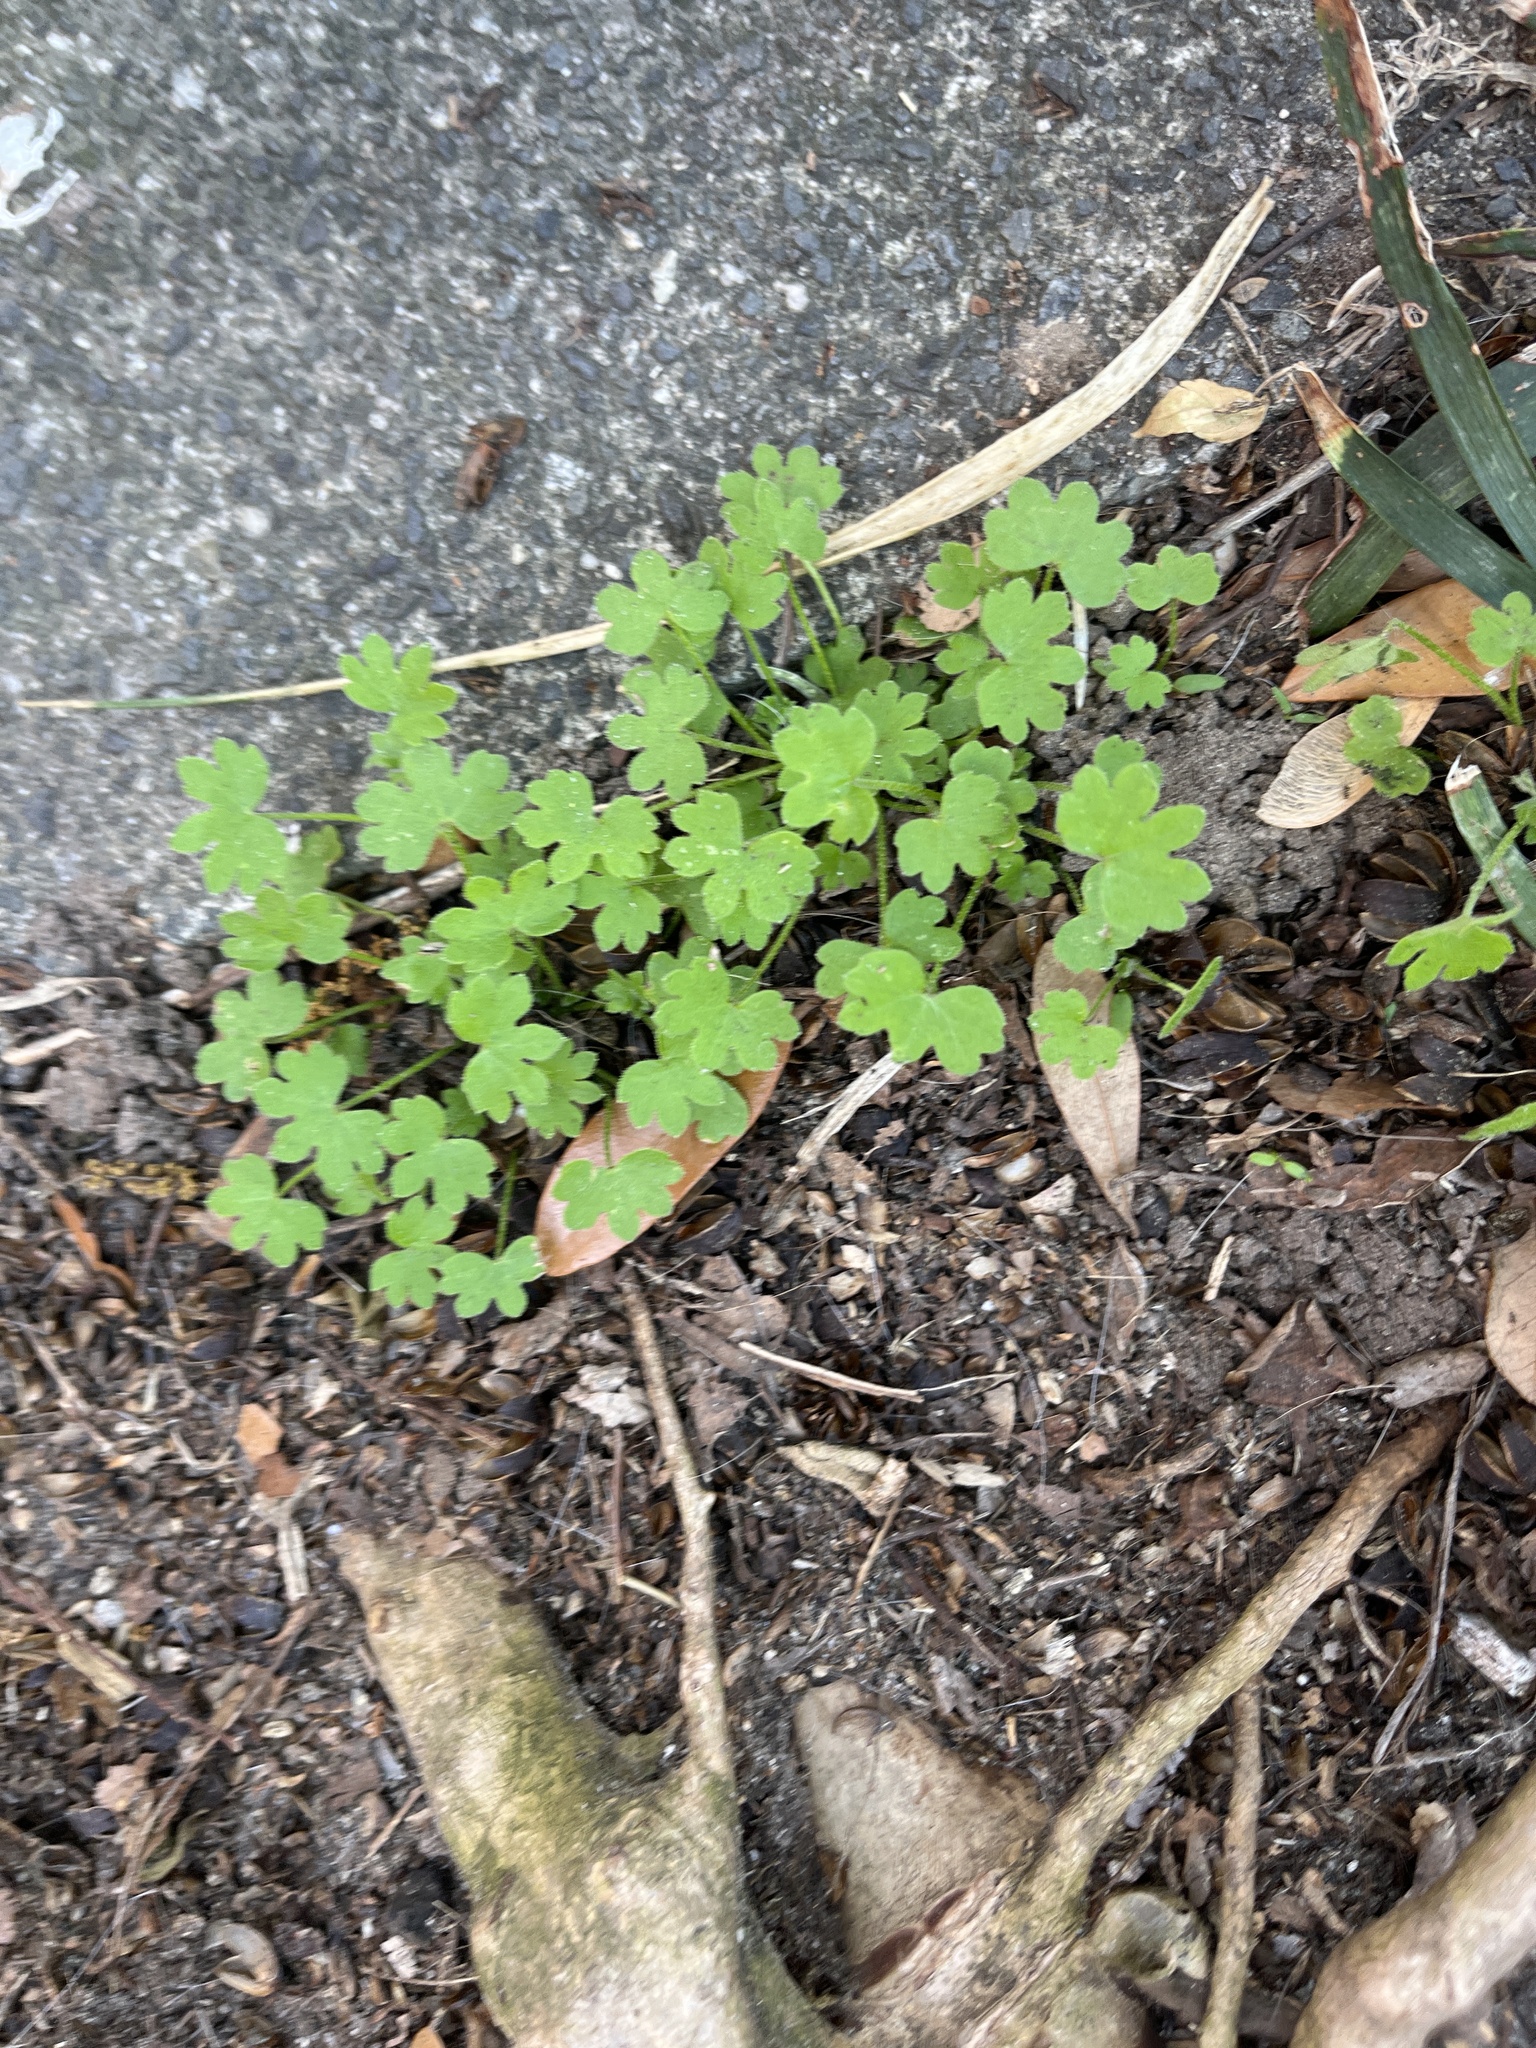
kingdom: Plantae
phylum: Tracheophyta
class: Magnoliopsida
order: Apiales
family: Apiaceae
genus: Bowlesia
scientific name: Bowlesia incana
